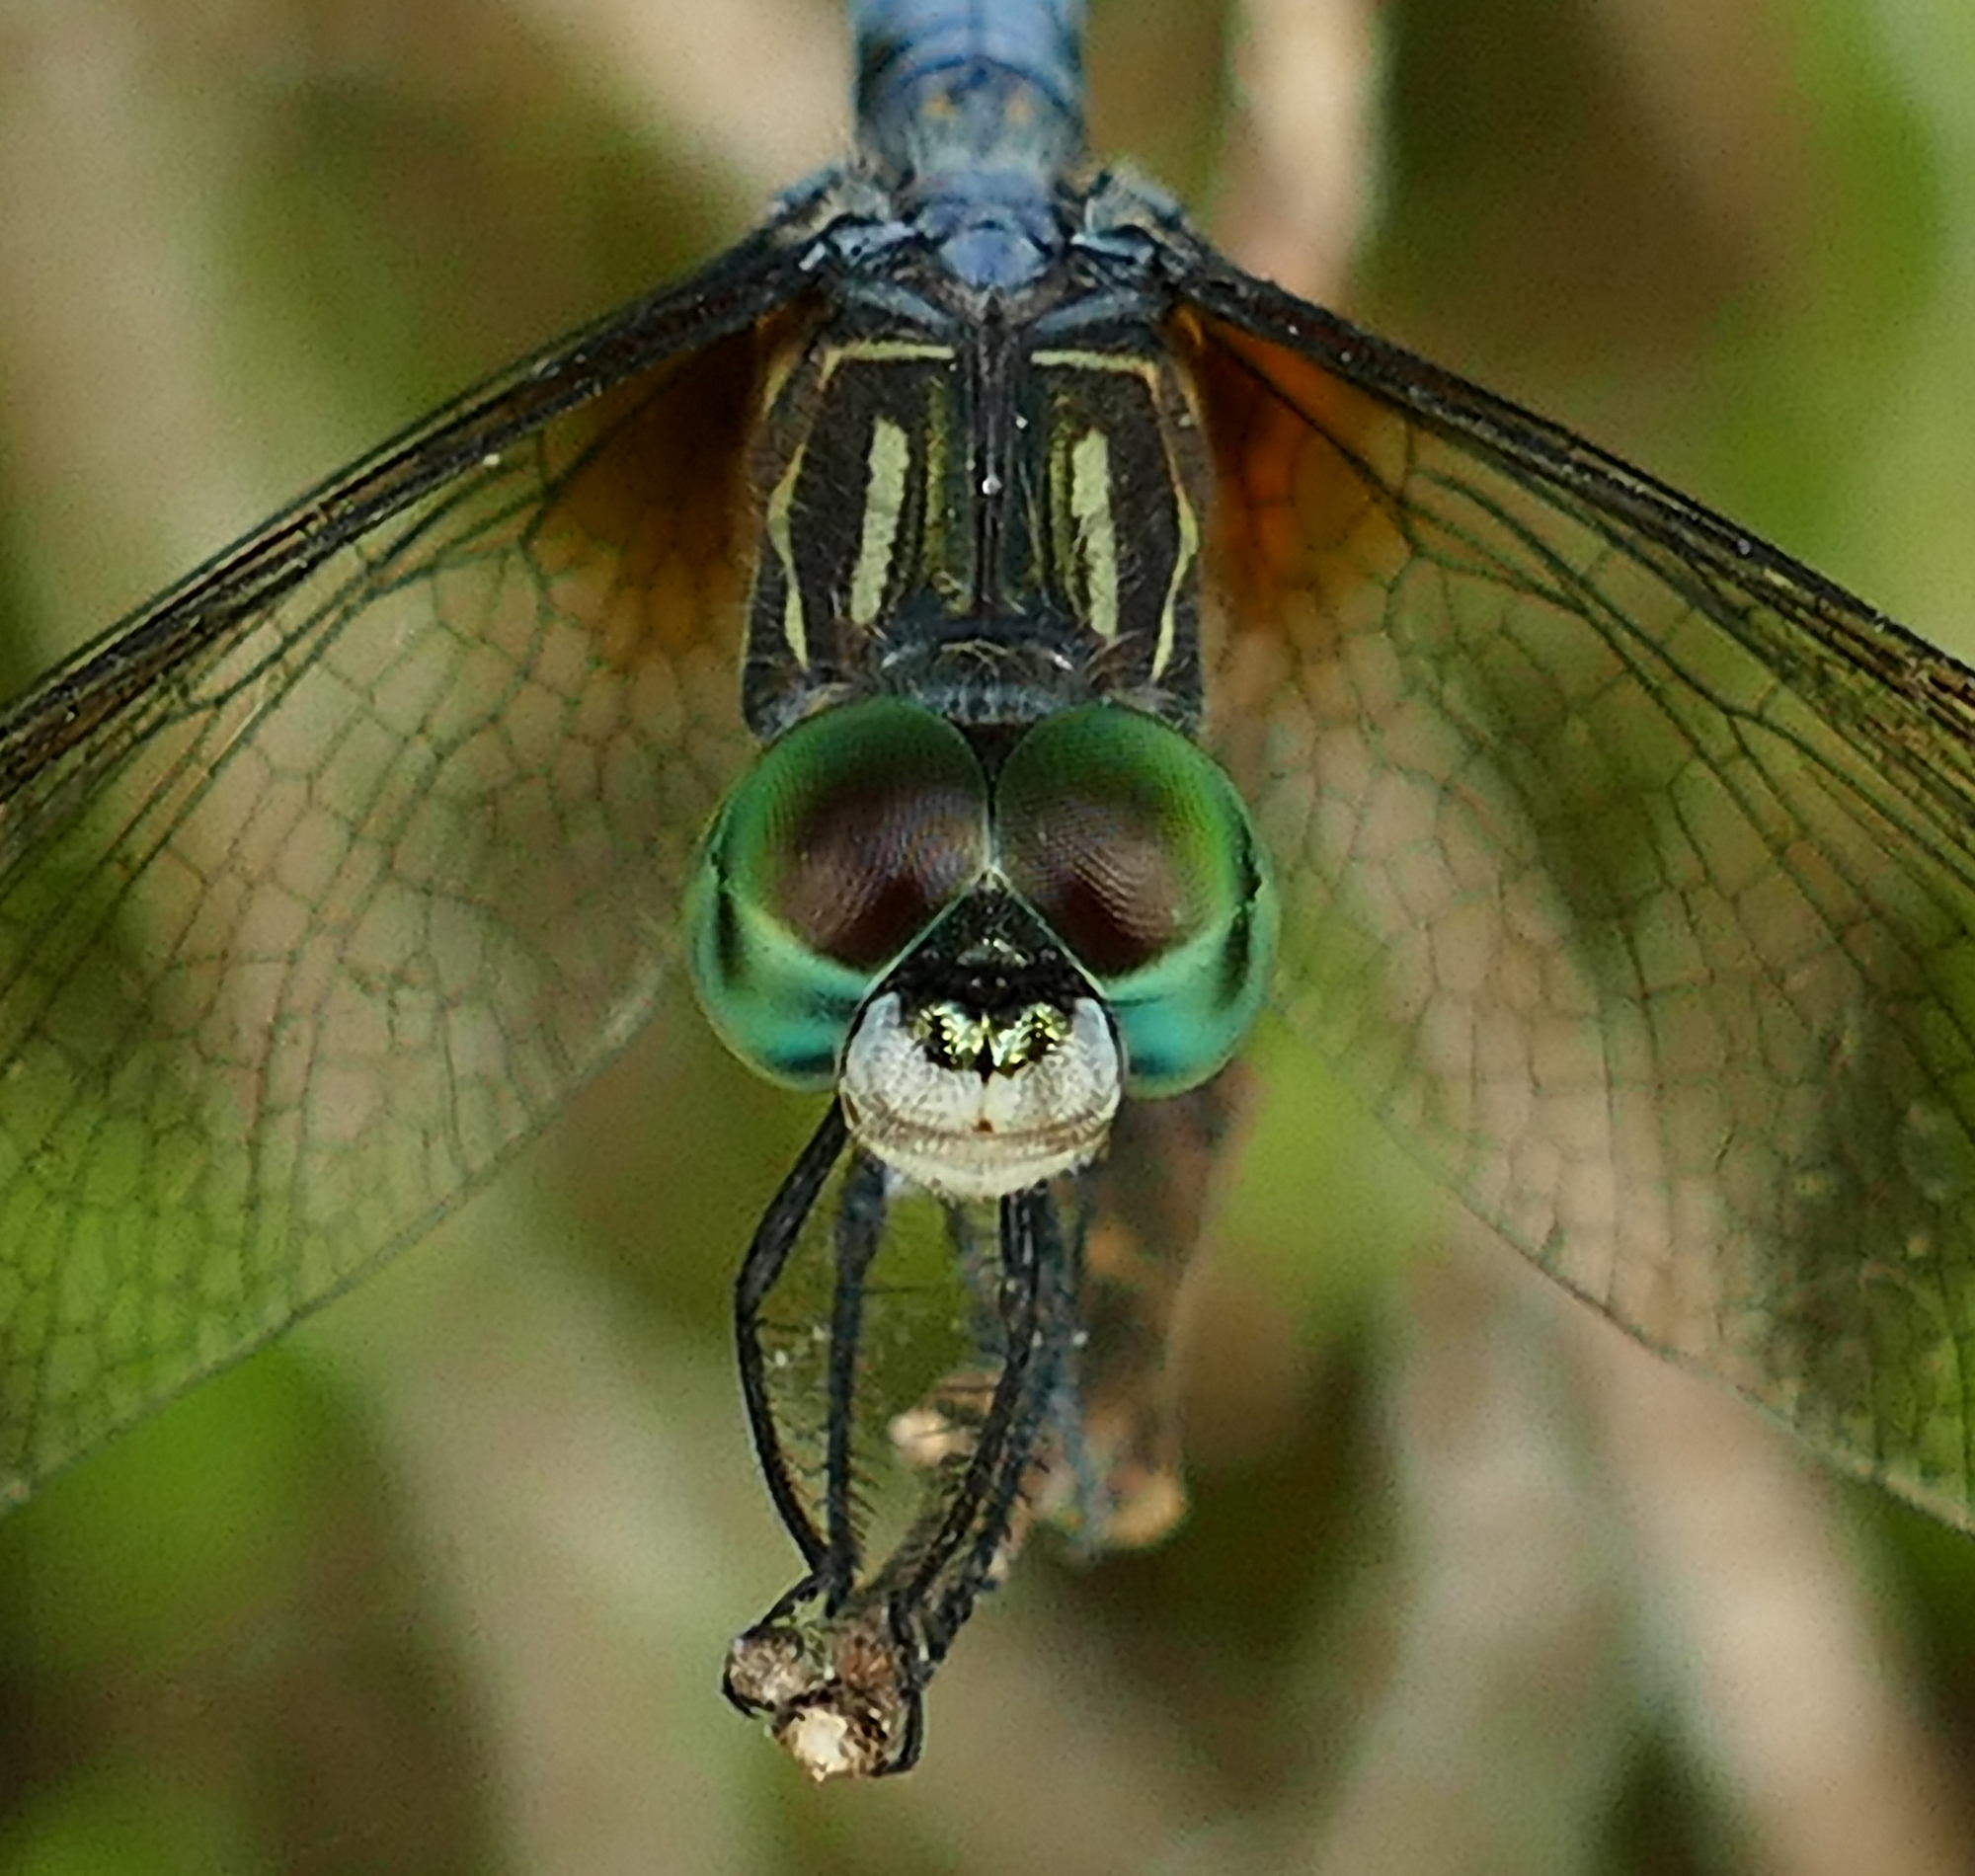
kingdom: Animalia
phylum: Arthropoda
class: Insecta
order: Odonata
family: Libellulidae
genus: Pachydiplax
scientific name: Pachydiplax longipennis
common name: Blue dasher
